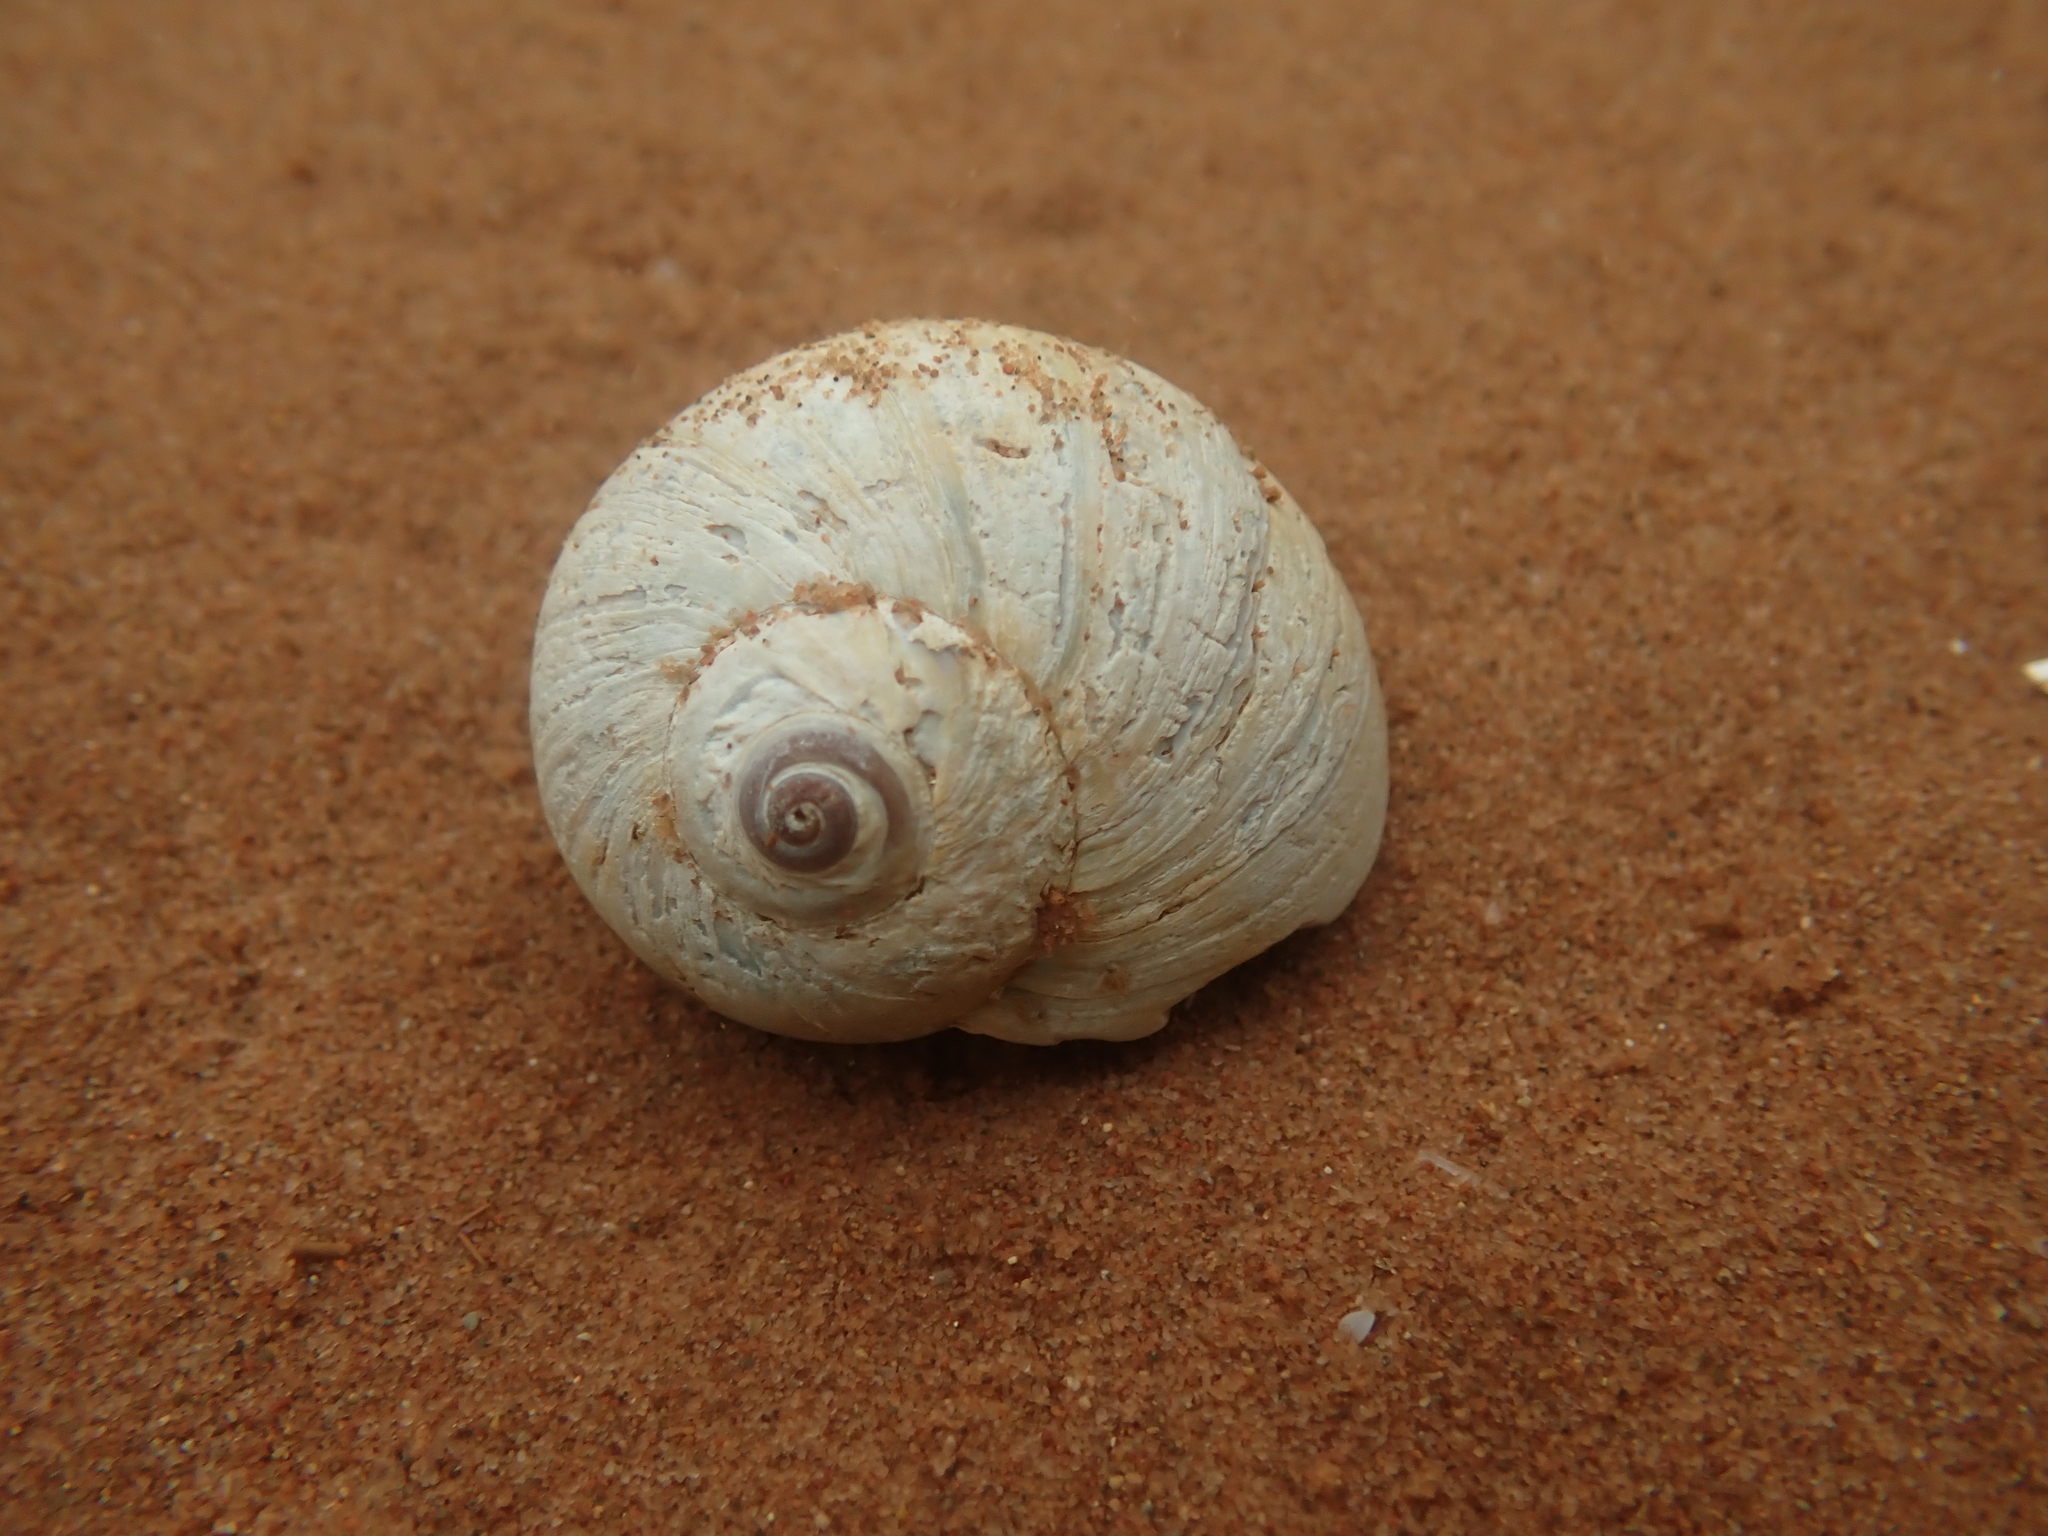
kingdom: Animalia
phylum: Mollusca
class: Gastropoda
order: Littorinimorpha
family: Naticidae
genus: Euspira
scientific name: Euspira heros
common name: Common northern moonsnail
